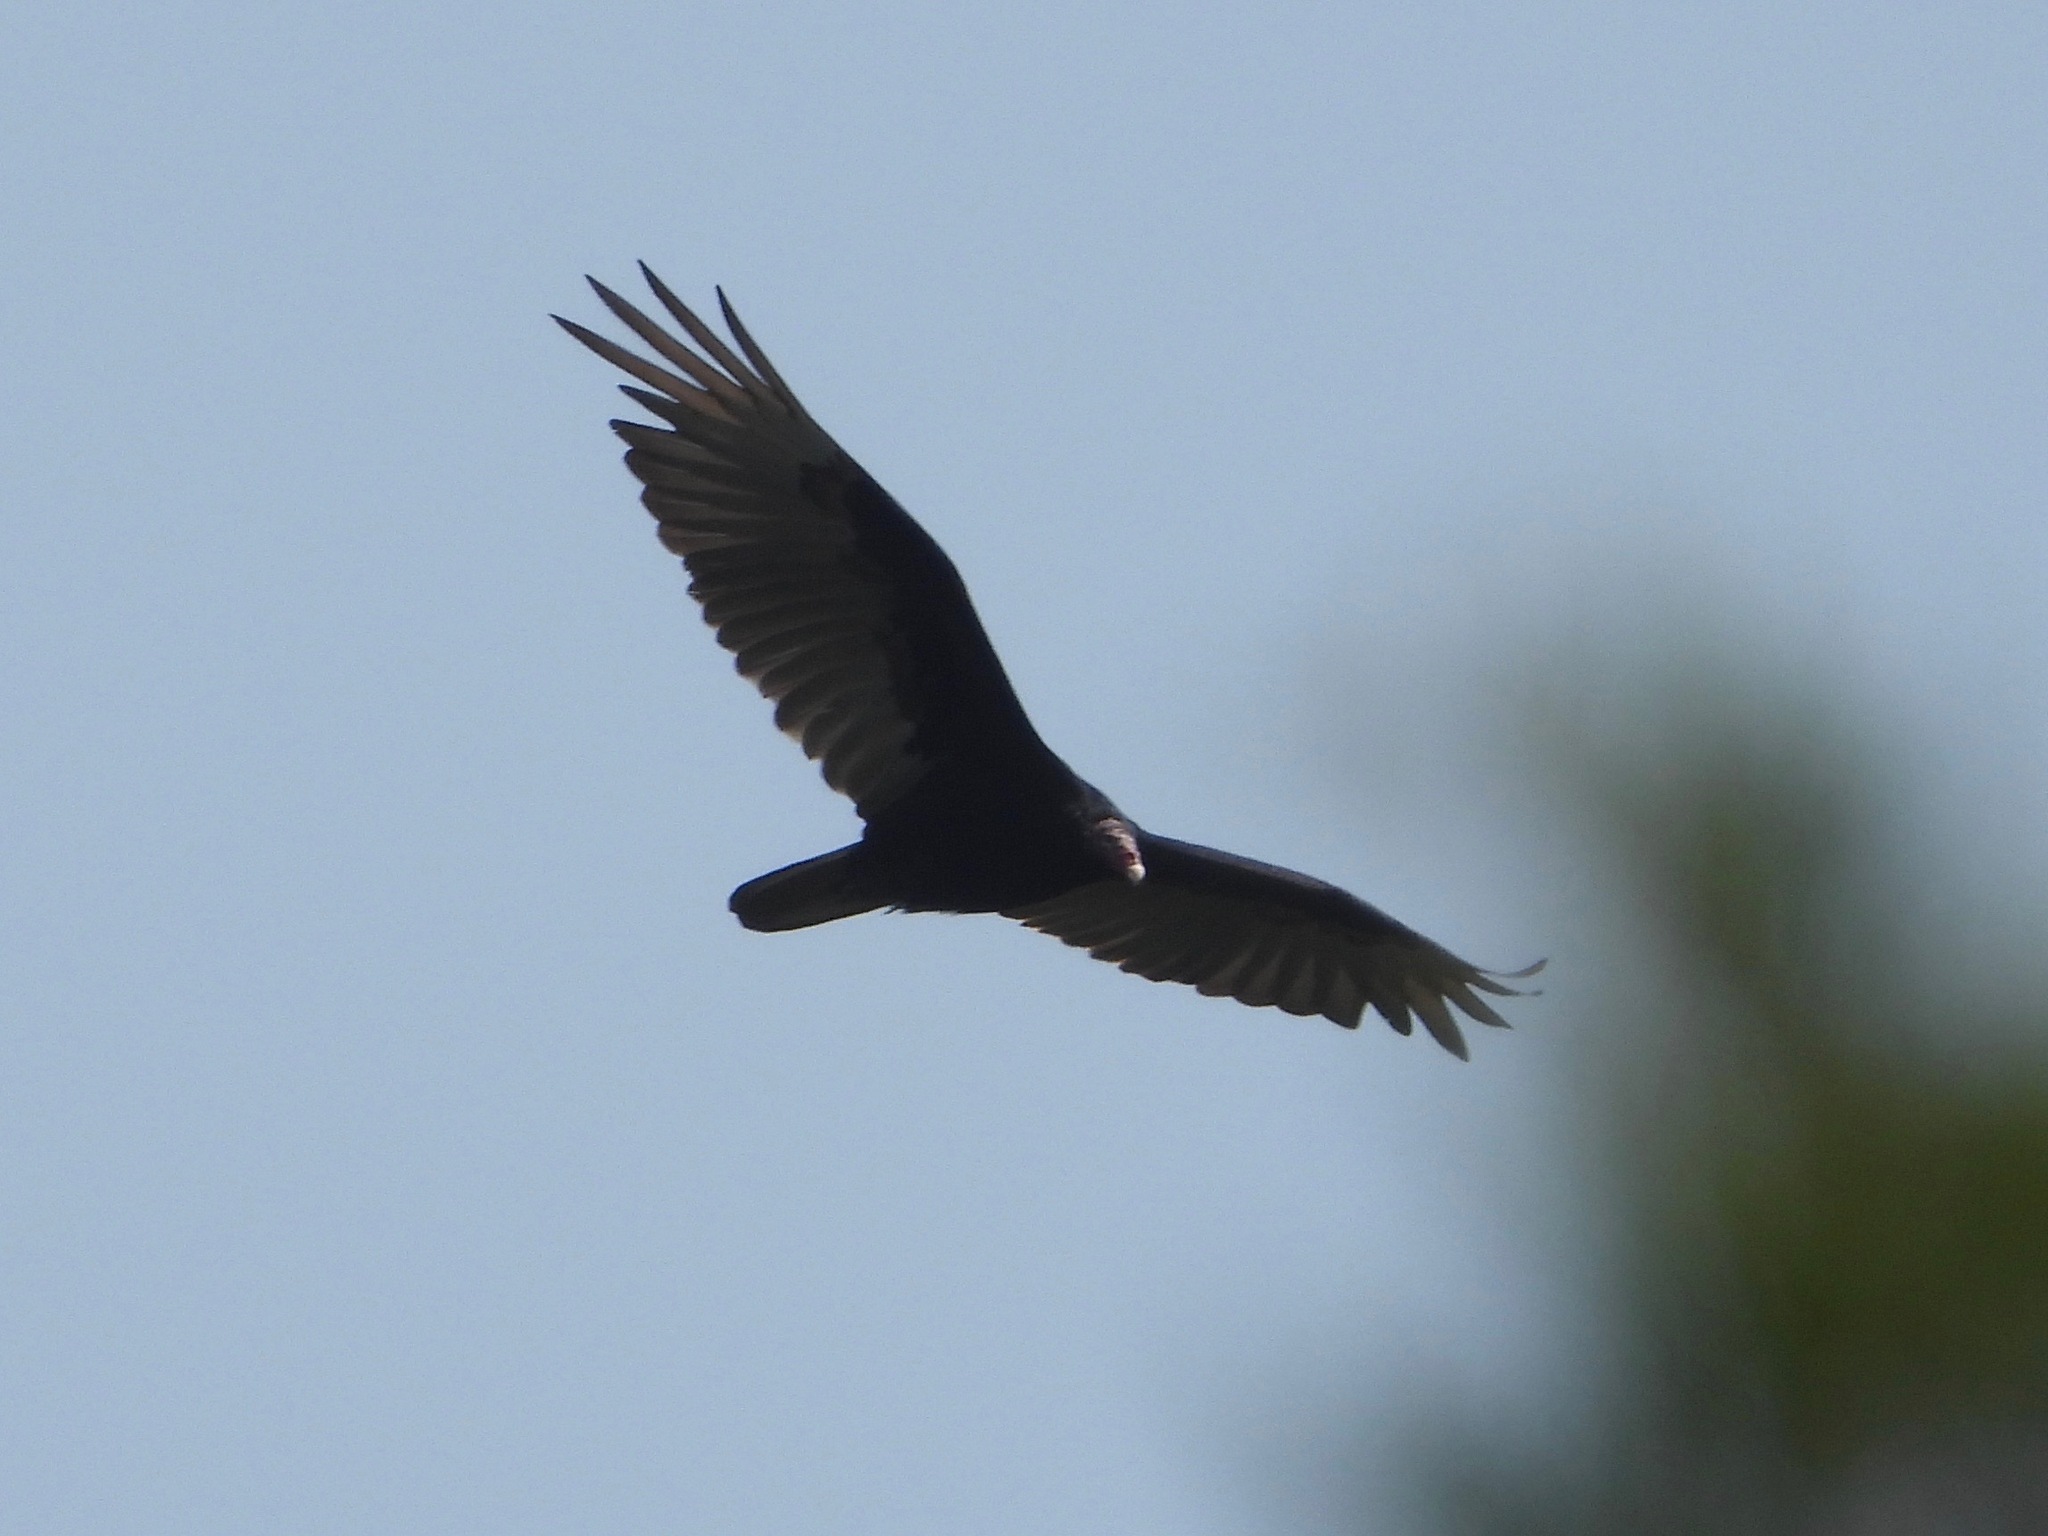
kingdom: Animalia
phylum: Chordata
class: Aves
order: Accipitriformes
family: Cathartidae
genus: Cathartes
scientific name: Cathartes aura
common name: Turkey vulture
